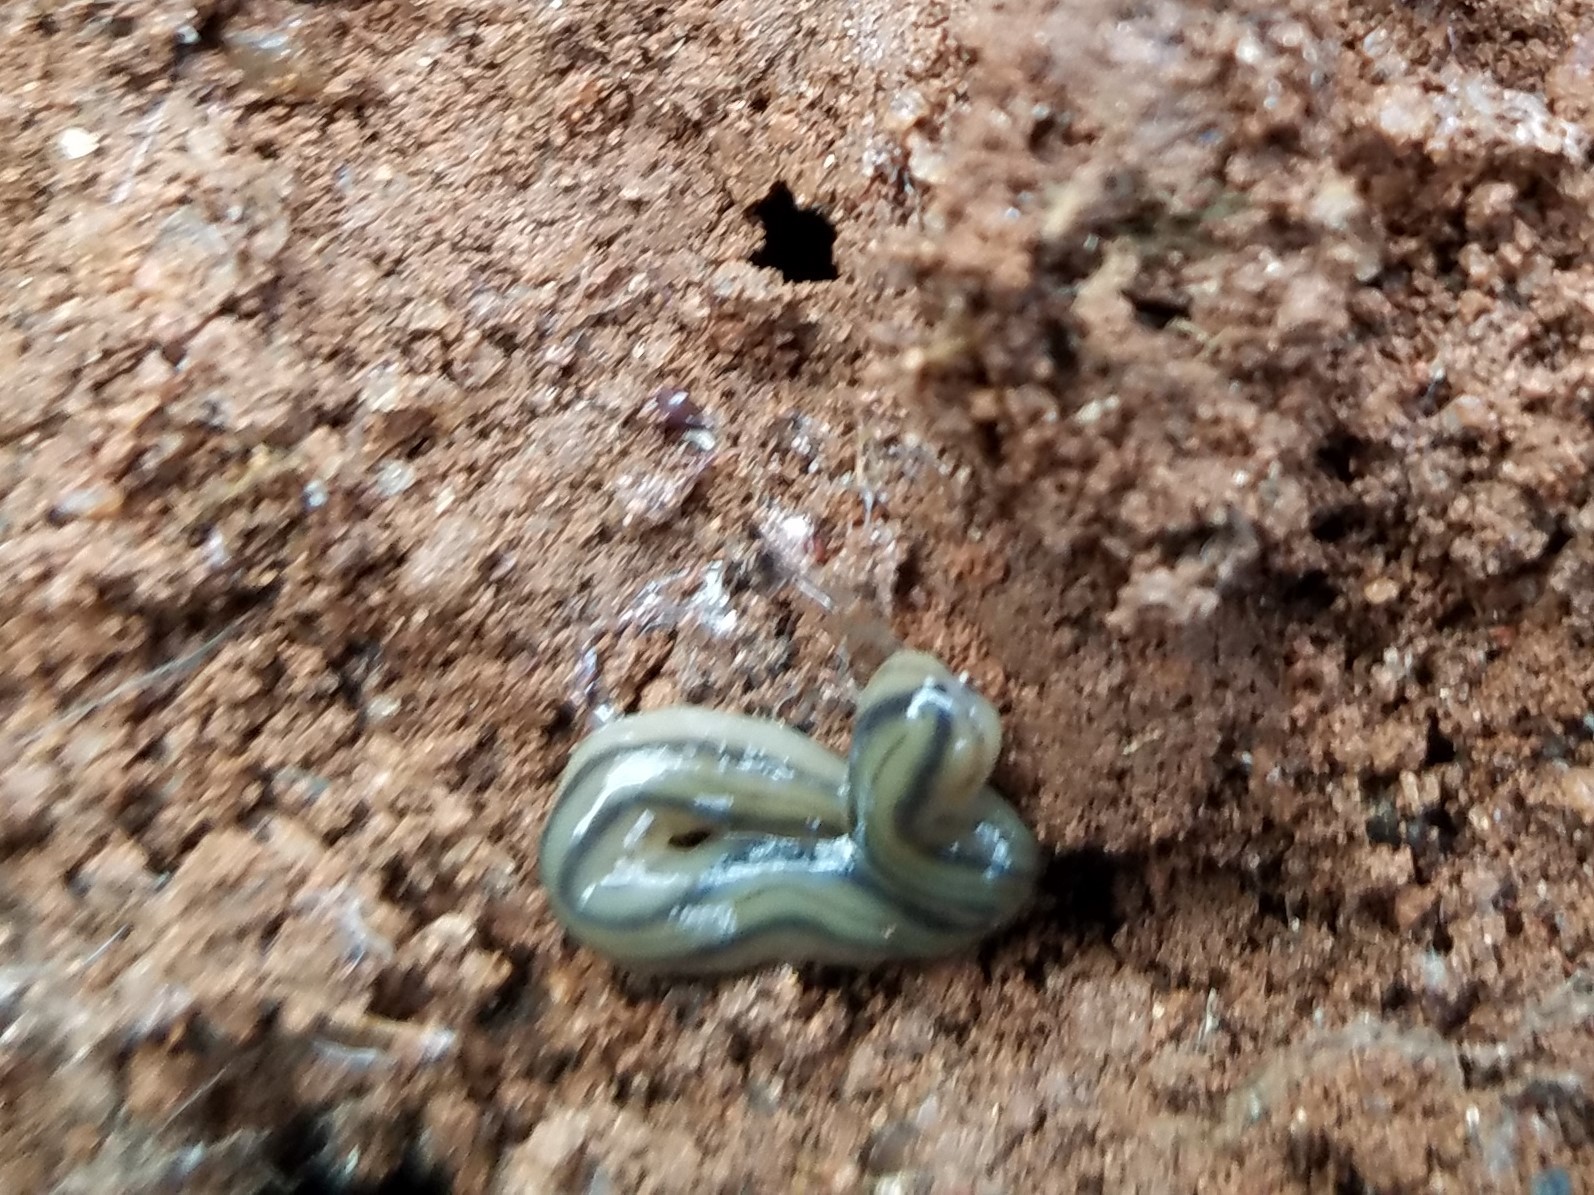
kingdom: Animalia
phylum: Platyhelminthes
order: Tricladida
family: Geoplanidae
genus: Bipalium
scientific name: Bipalium kewense
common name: Hammerhead flatworm
